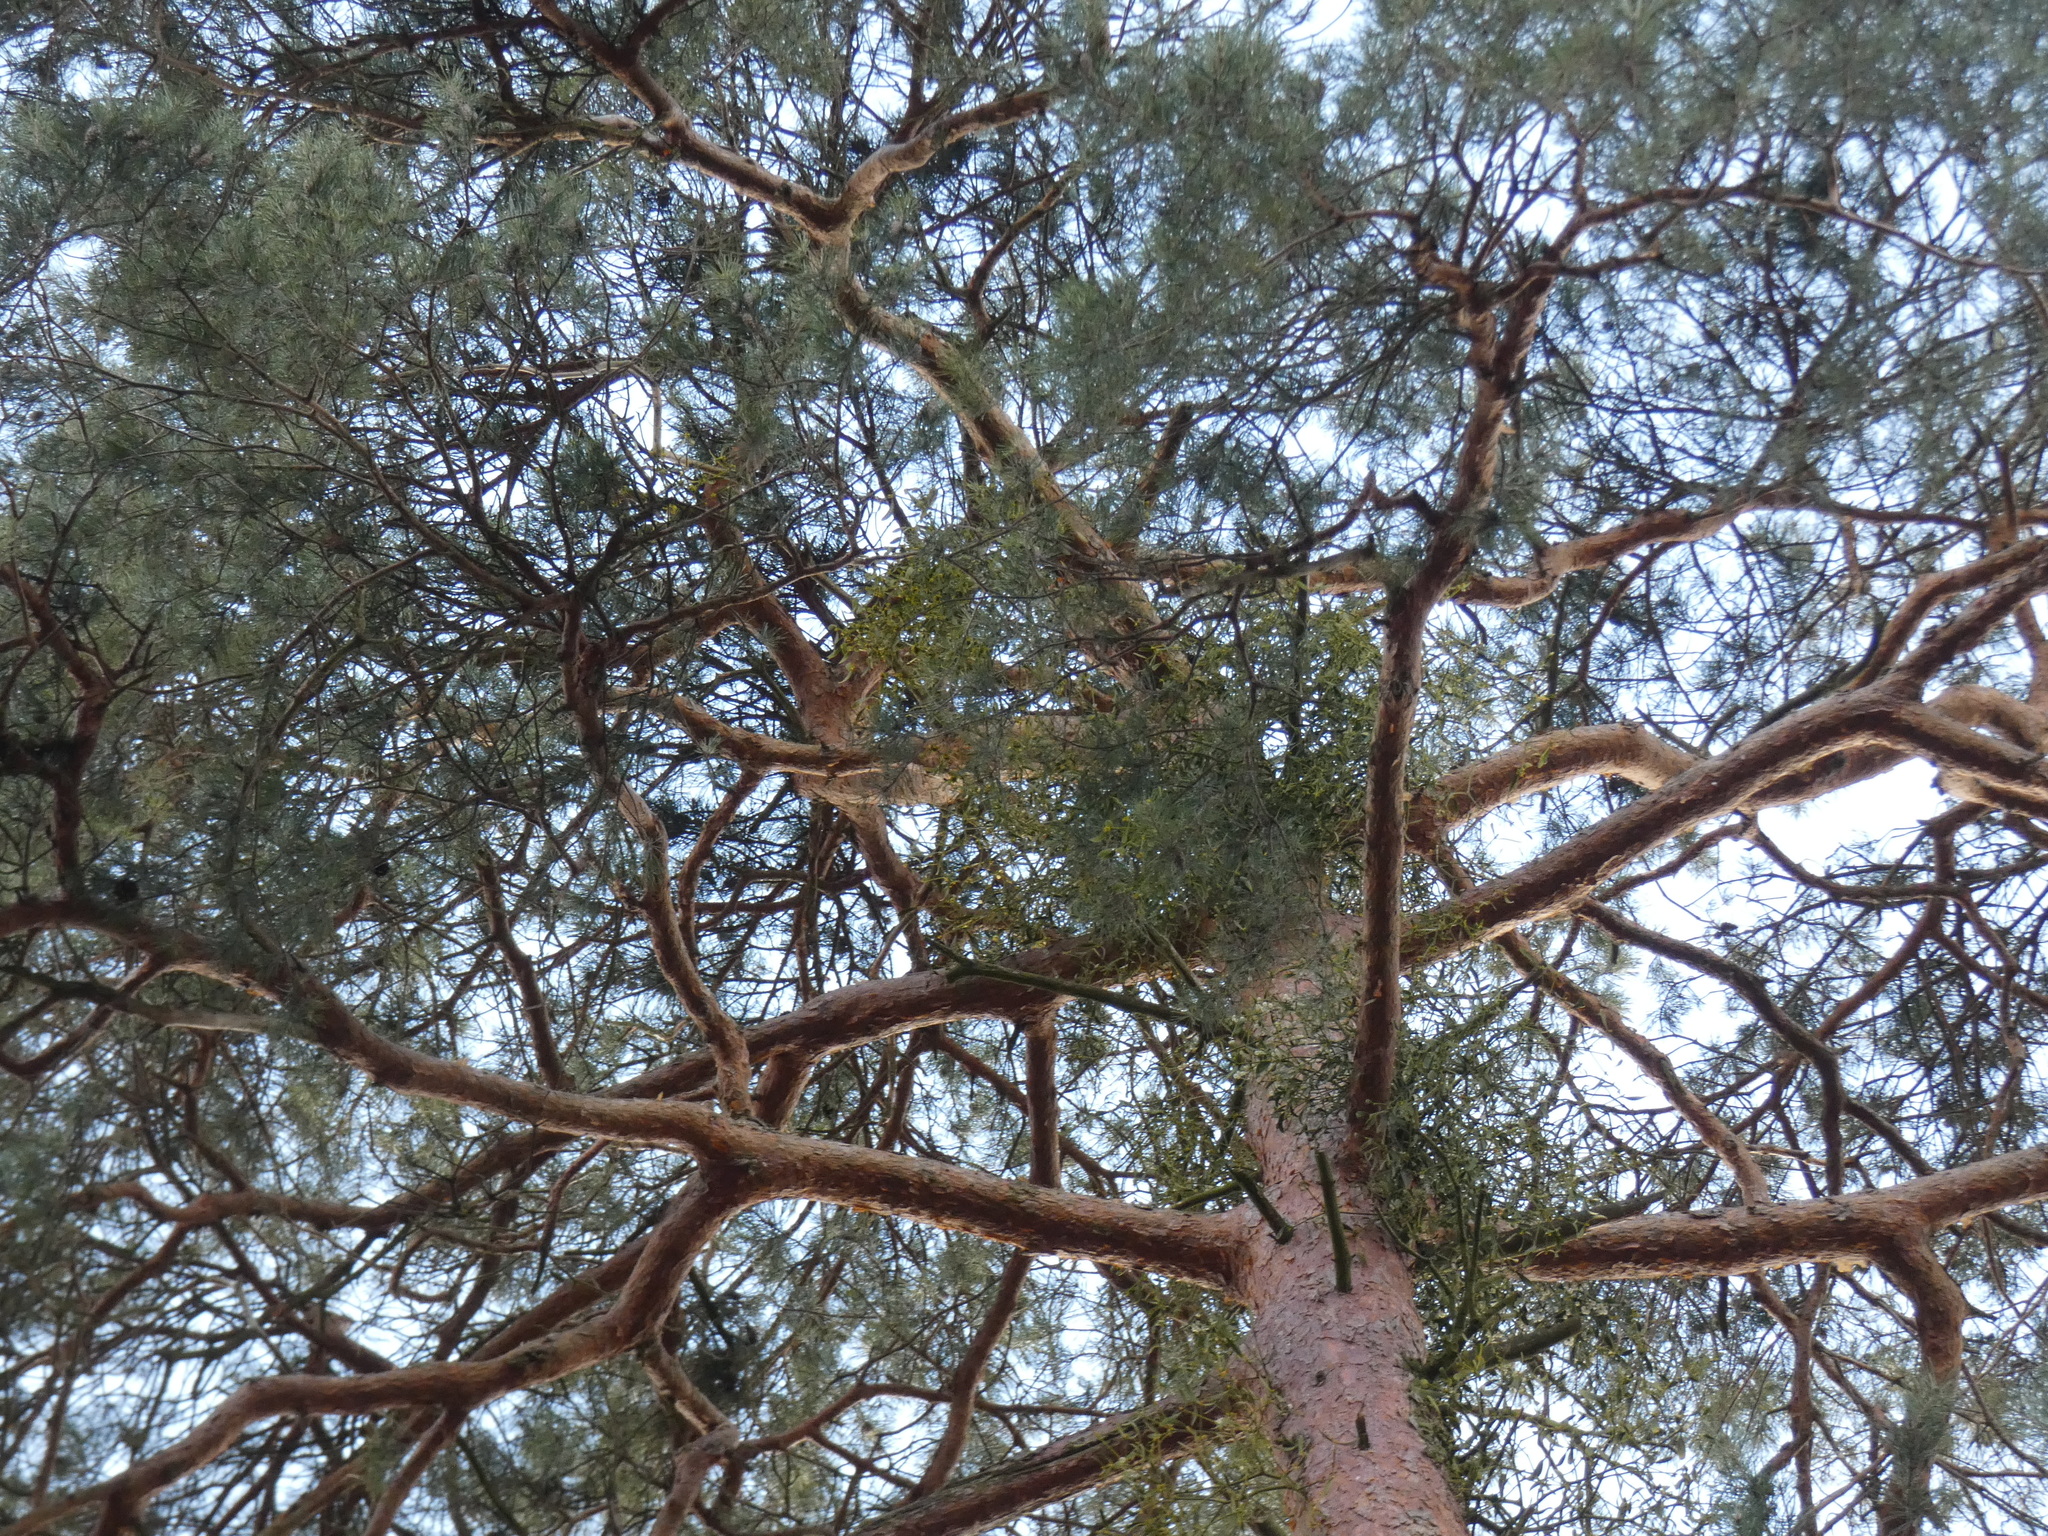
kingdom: Plantae
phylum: Tracheophyta
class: Magnoliopsida
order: Santalales
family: Viscaceae
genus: Viscum
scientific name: Viscum laxum
